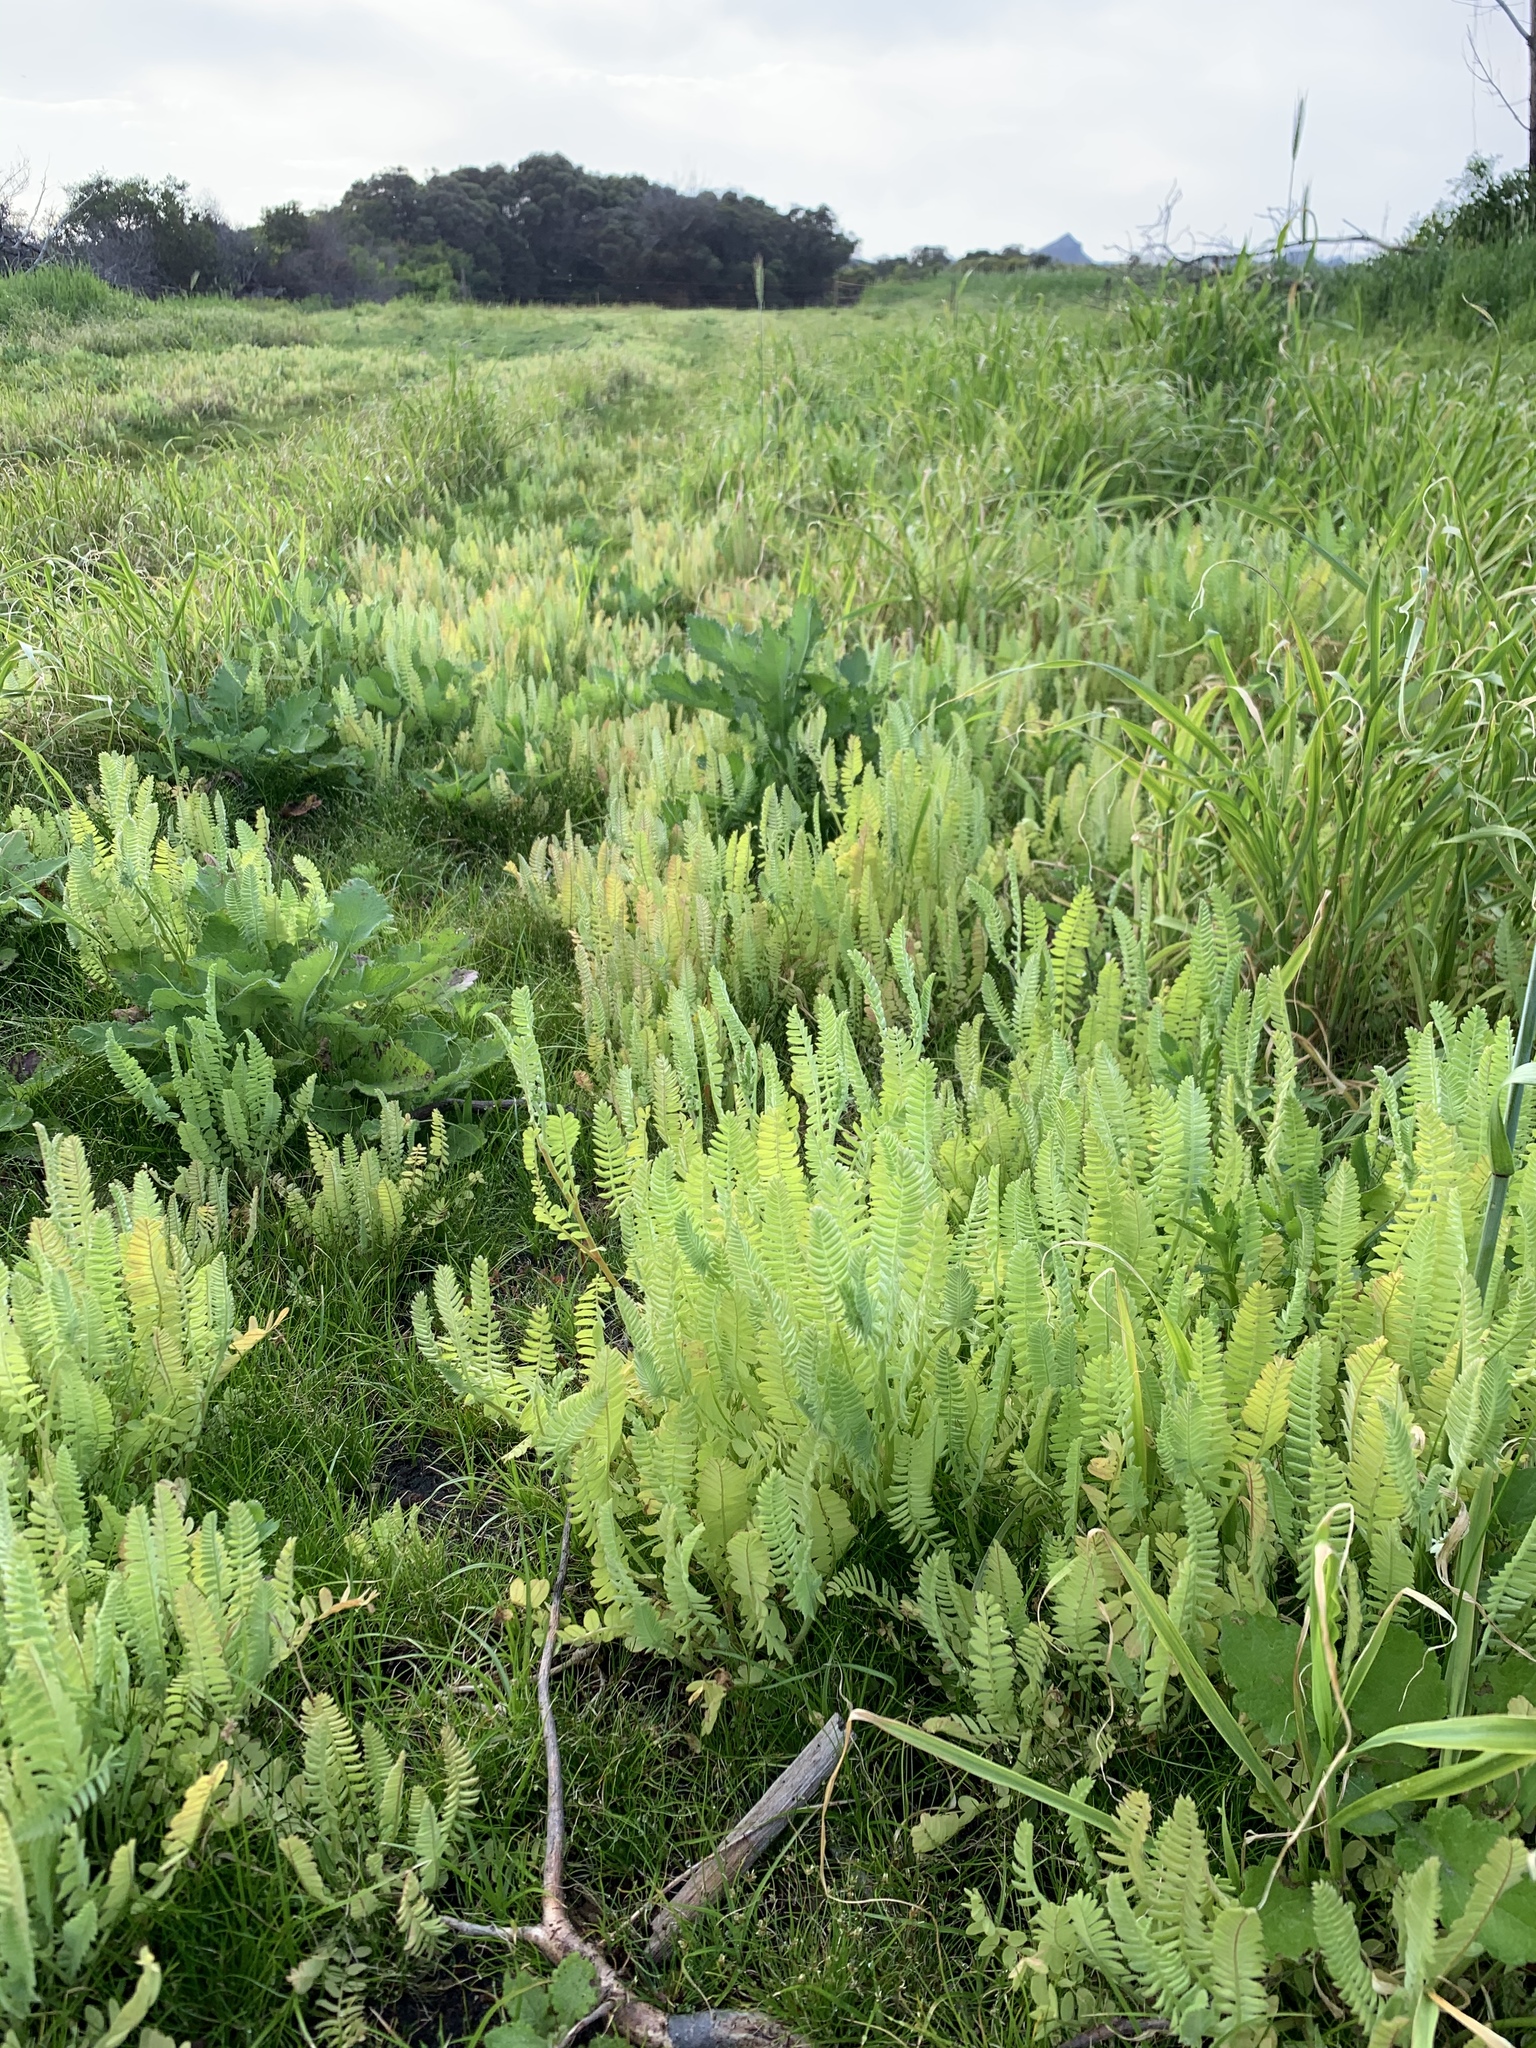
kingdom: Plantae
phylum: Tracheophyta
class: Magnoliopsida
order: Fabales
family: Fabaceae
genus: Ornithopus
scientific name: Ornithopus sativus
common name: Serradella
